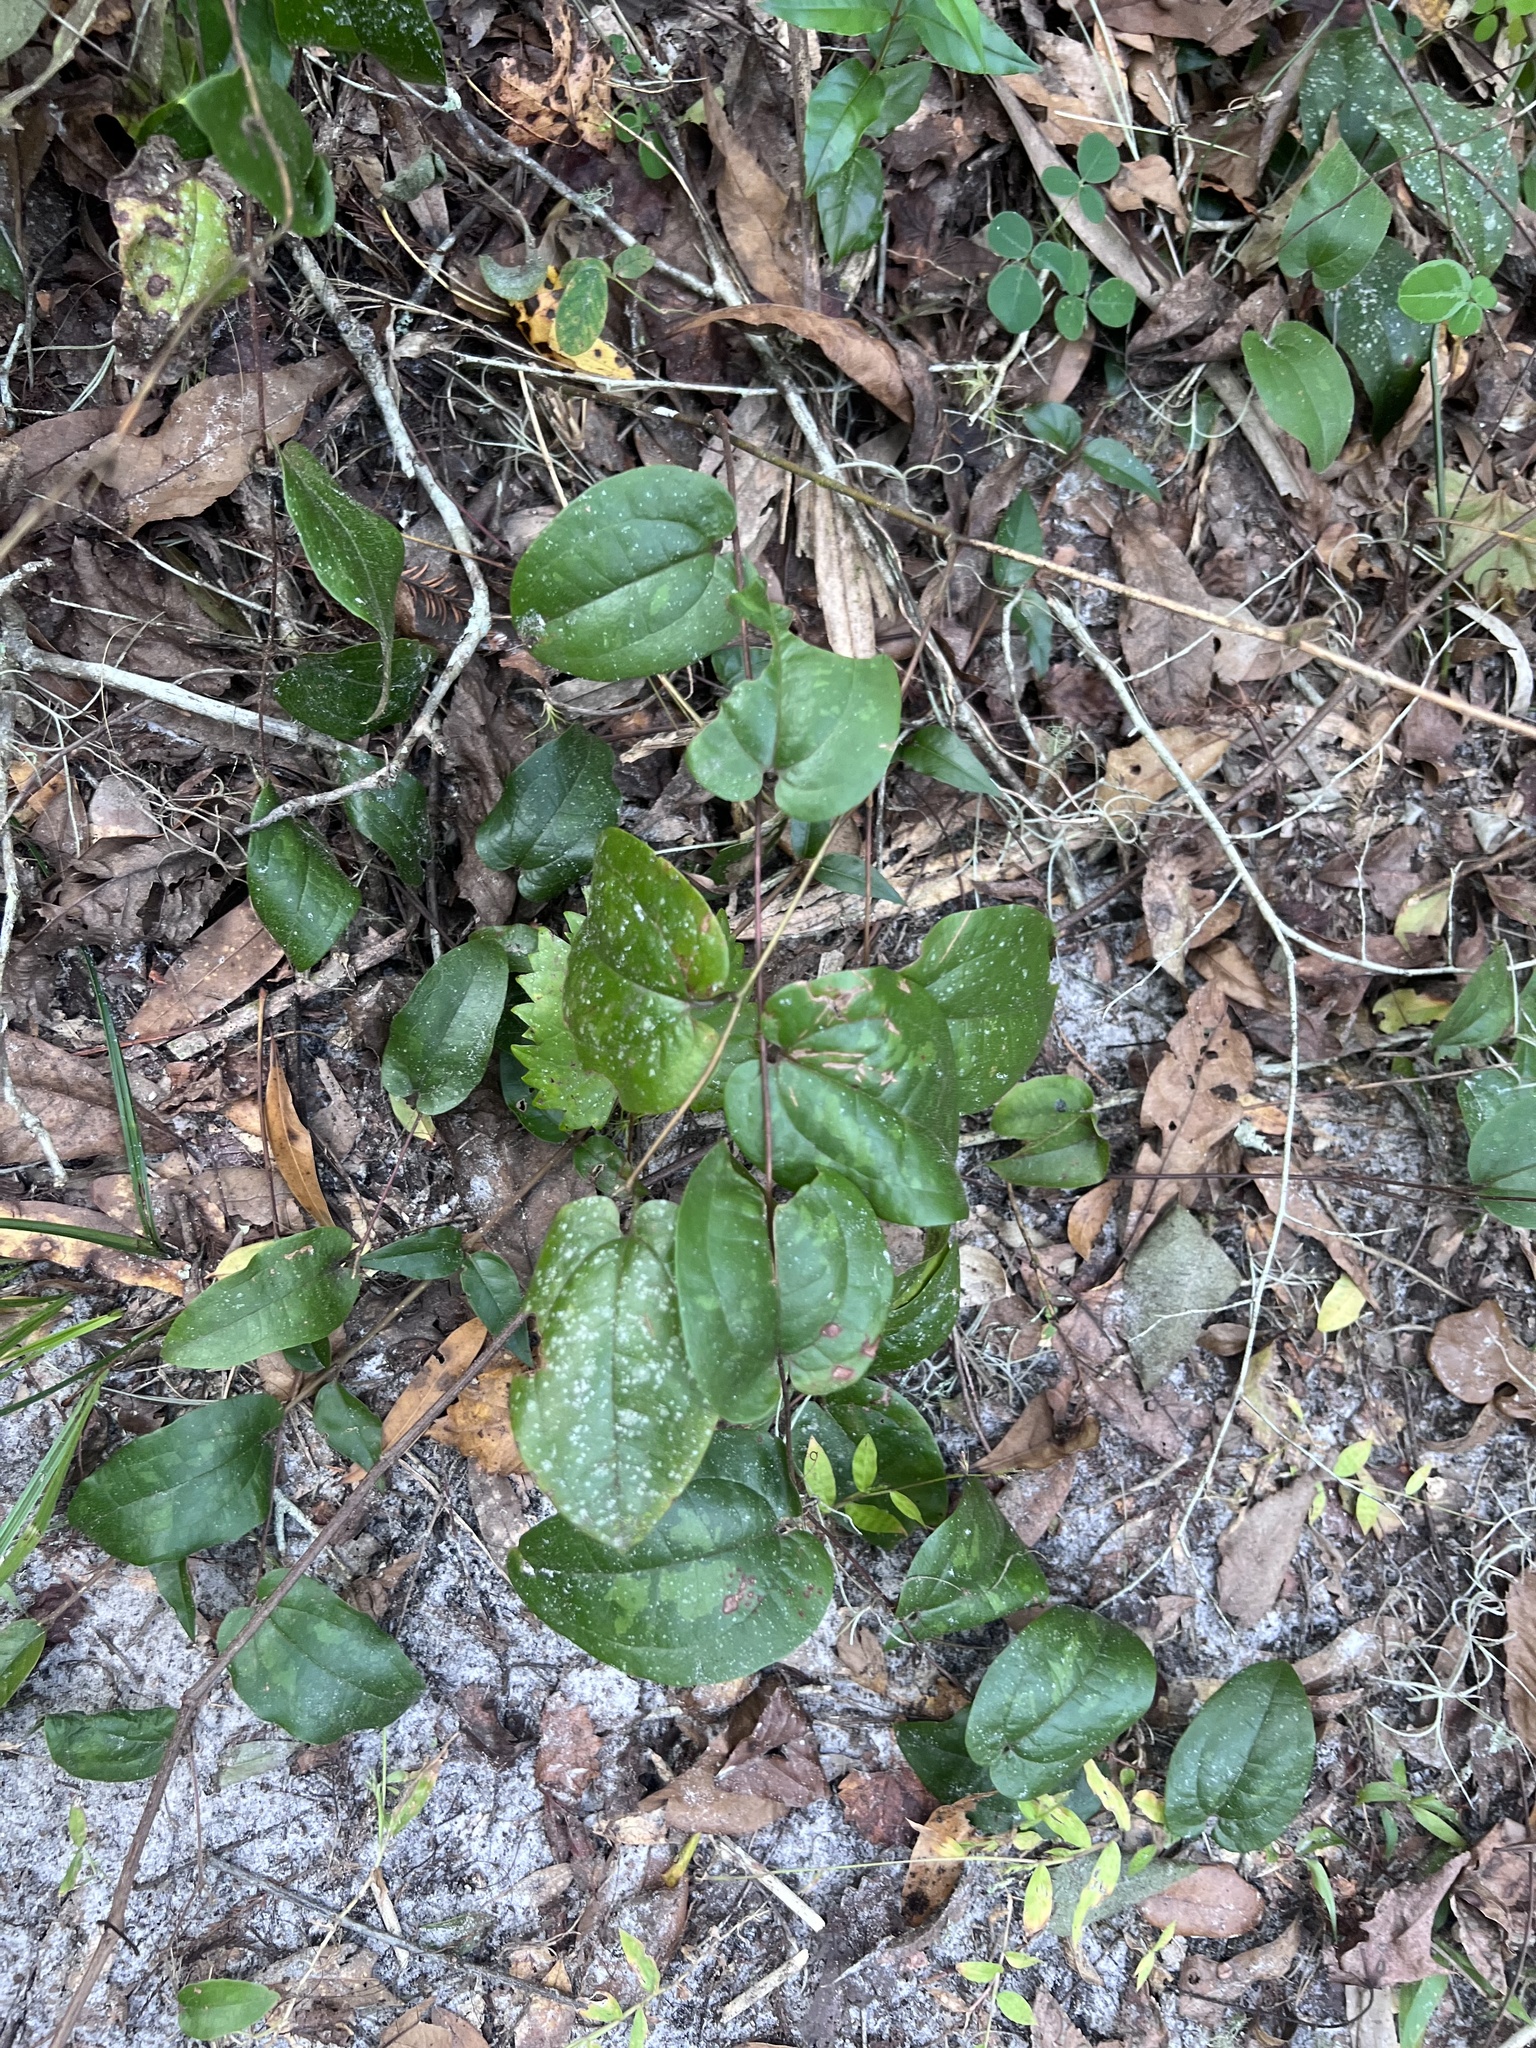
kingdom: Plantae
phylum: Tracheophyta
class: Liliopsida
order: Liliales
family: Smilacaceae
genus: Smilax
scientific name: Smilax pumila
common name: Sarsaparilla-vine
